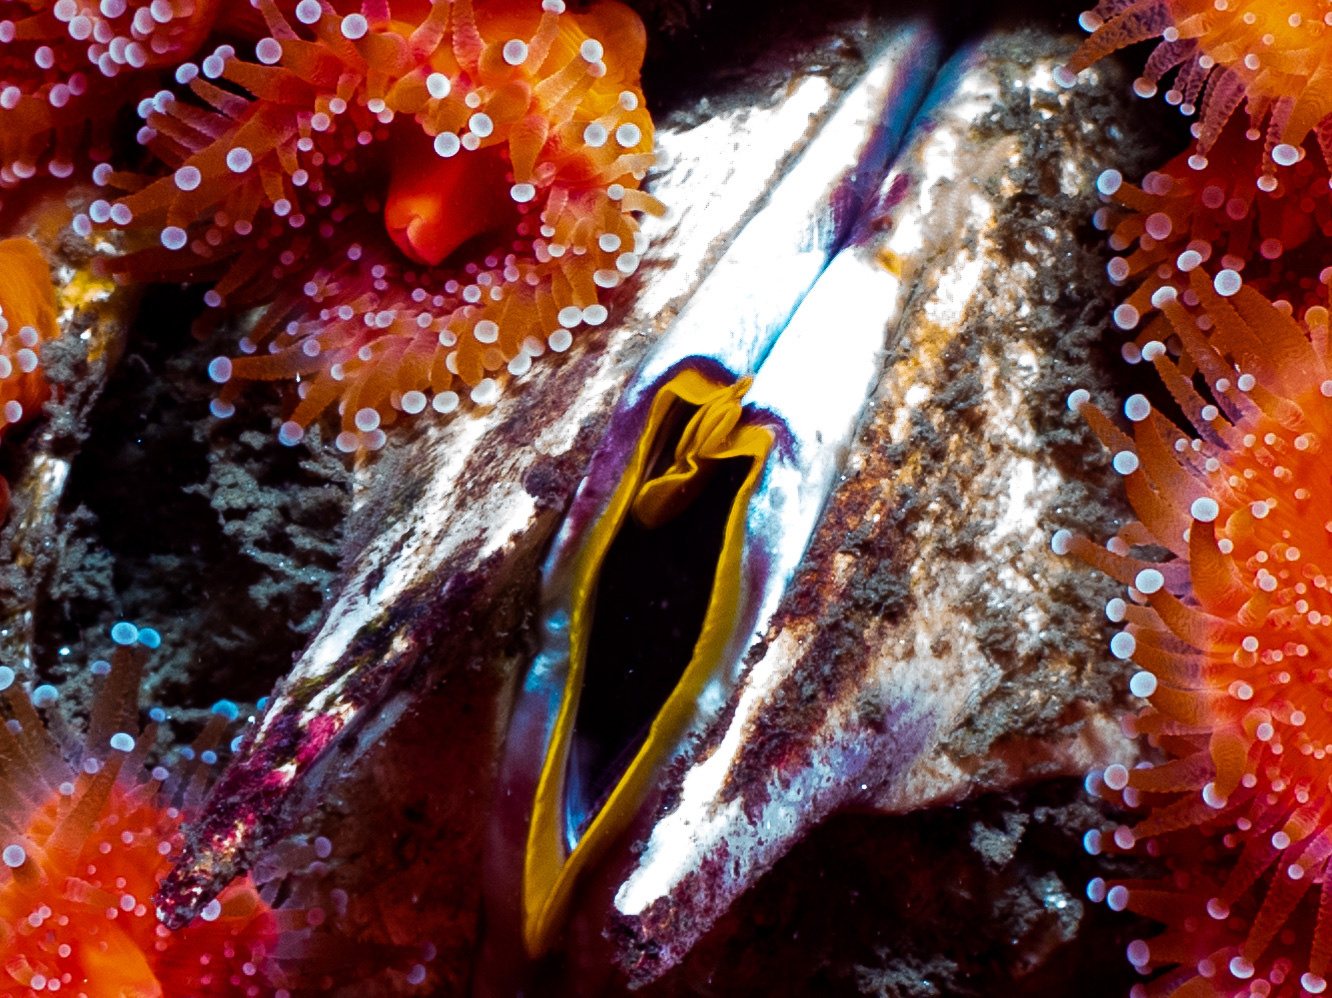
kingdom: Animalia
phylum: Arthropoda
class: Maxillopoda
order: Sessilia
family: Balanidae
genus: Balanus
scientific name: Balanus nubilus
